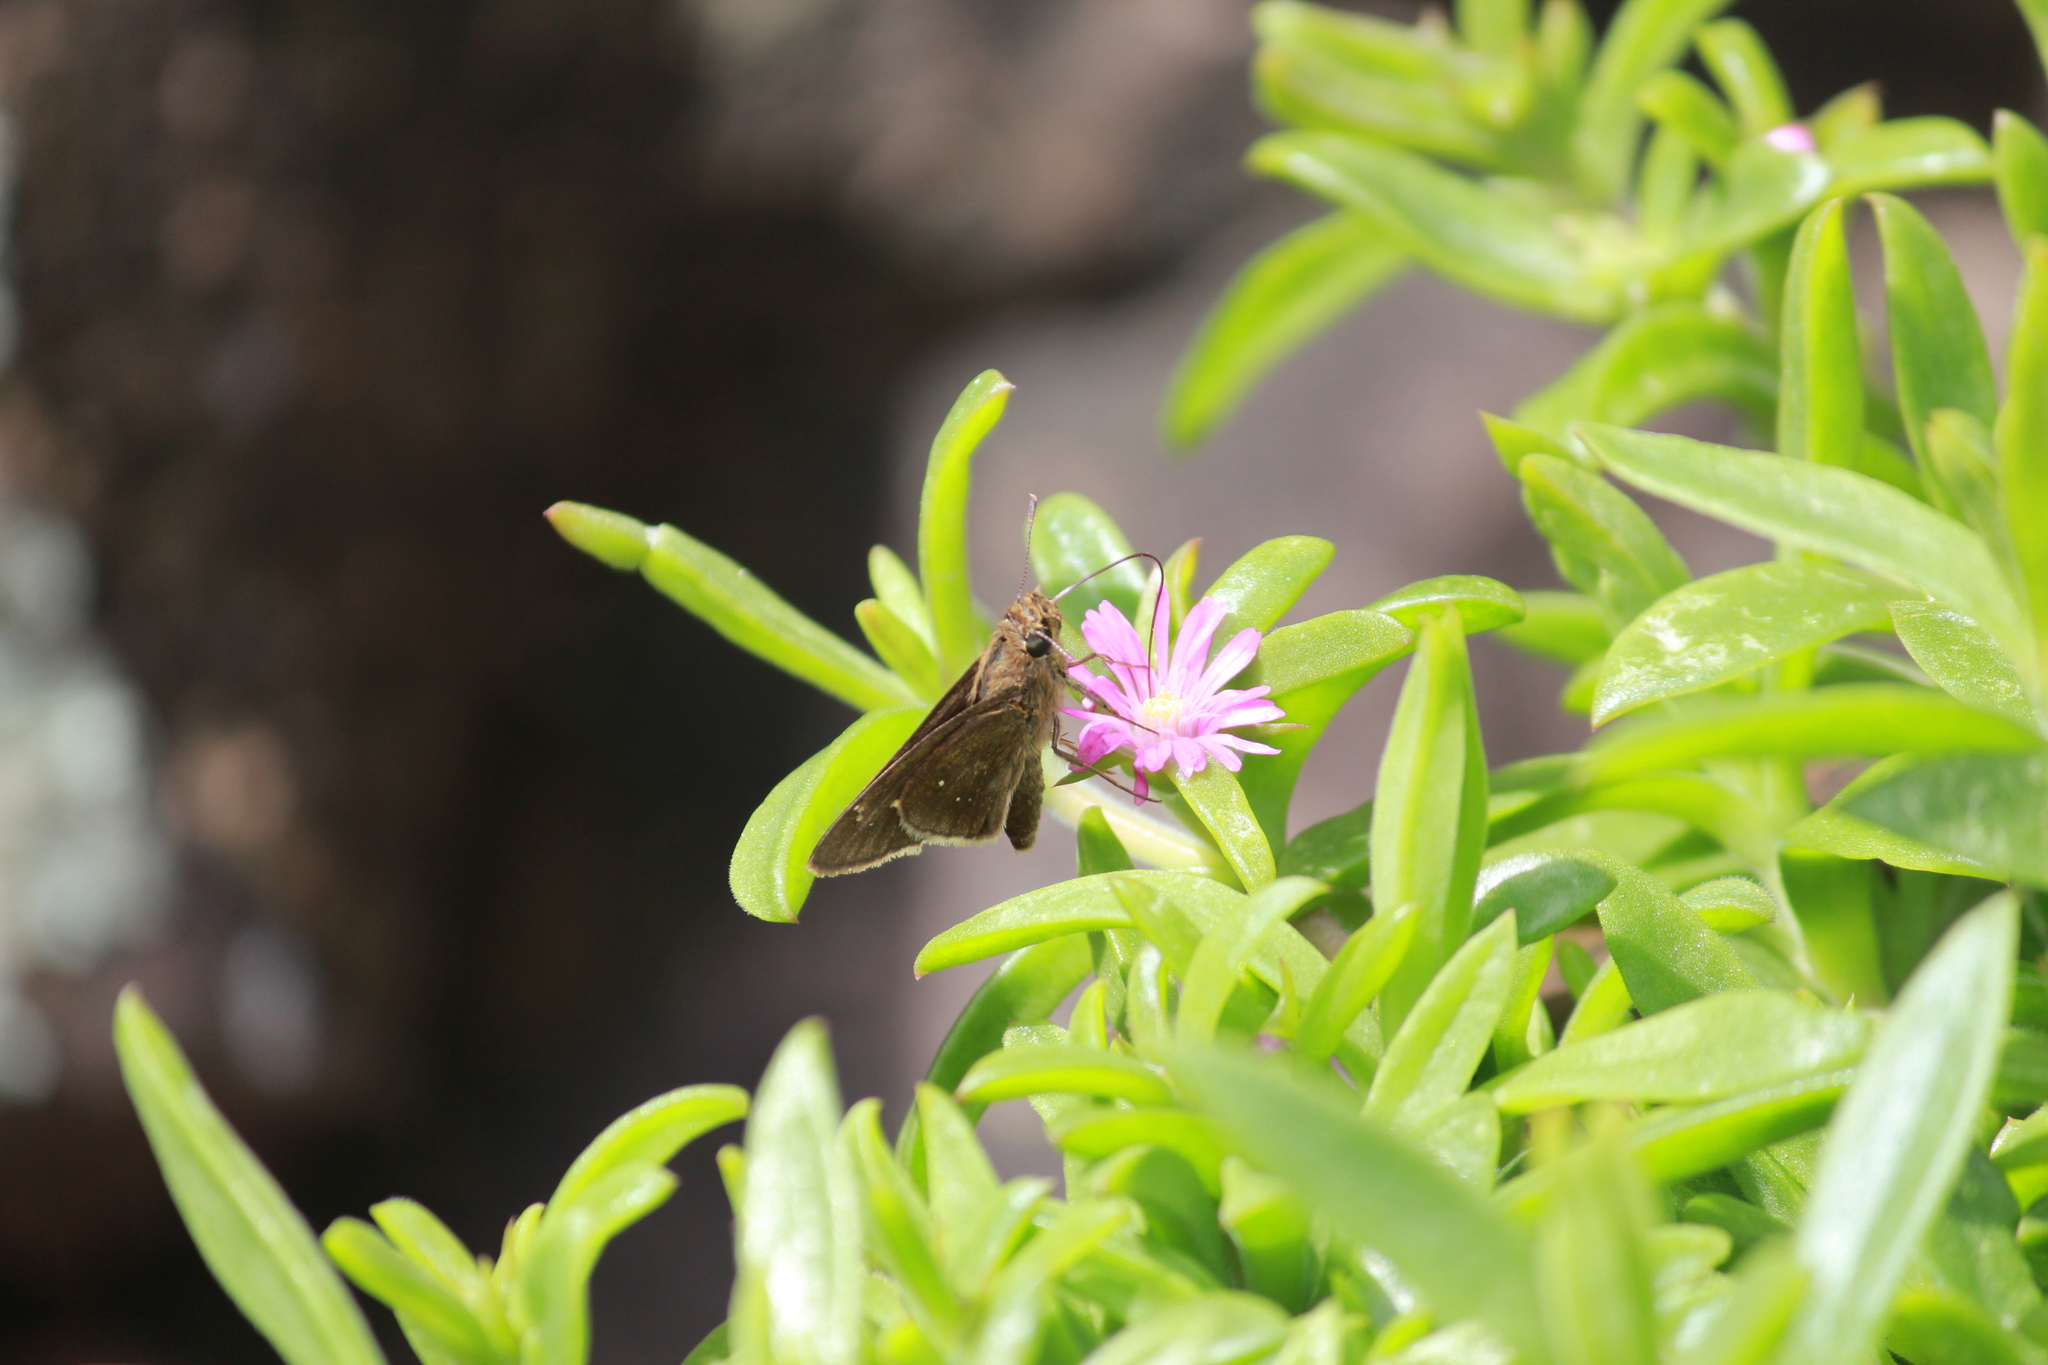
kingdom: Animalia
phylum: Arthropoda
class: Insecta
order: Lepidoptera
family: Hesperiidae
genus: Baoris
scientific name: Baoris fatuellus
